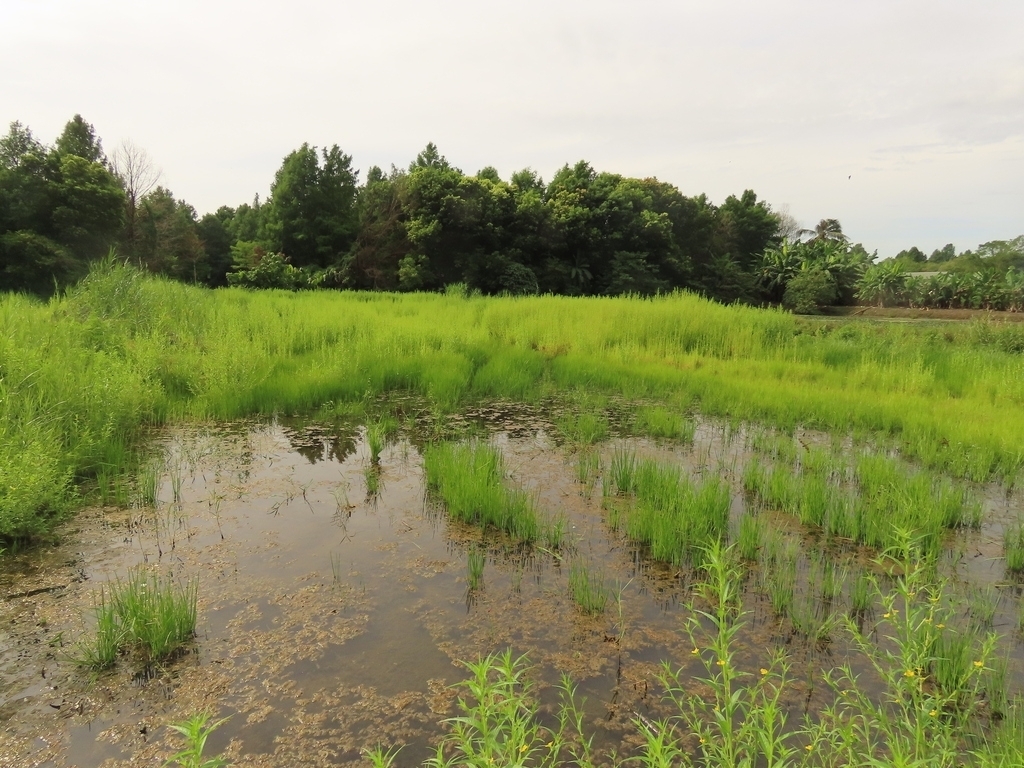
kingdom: Plantae
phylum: Tracheophyta
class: Liliopsida
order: Alismatales
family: Alismataceae
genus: Sagittaria
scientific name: Sagittaria trifolia
